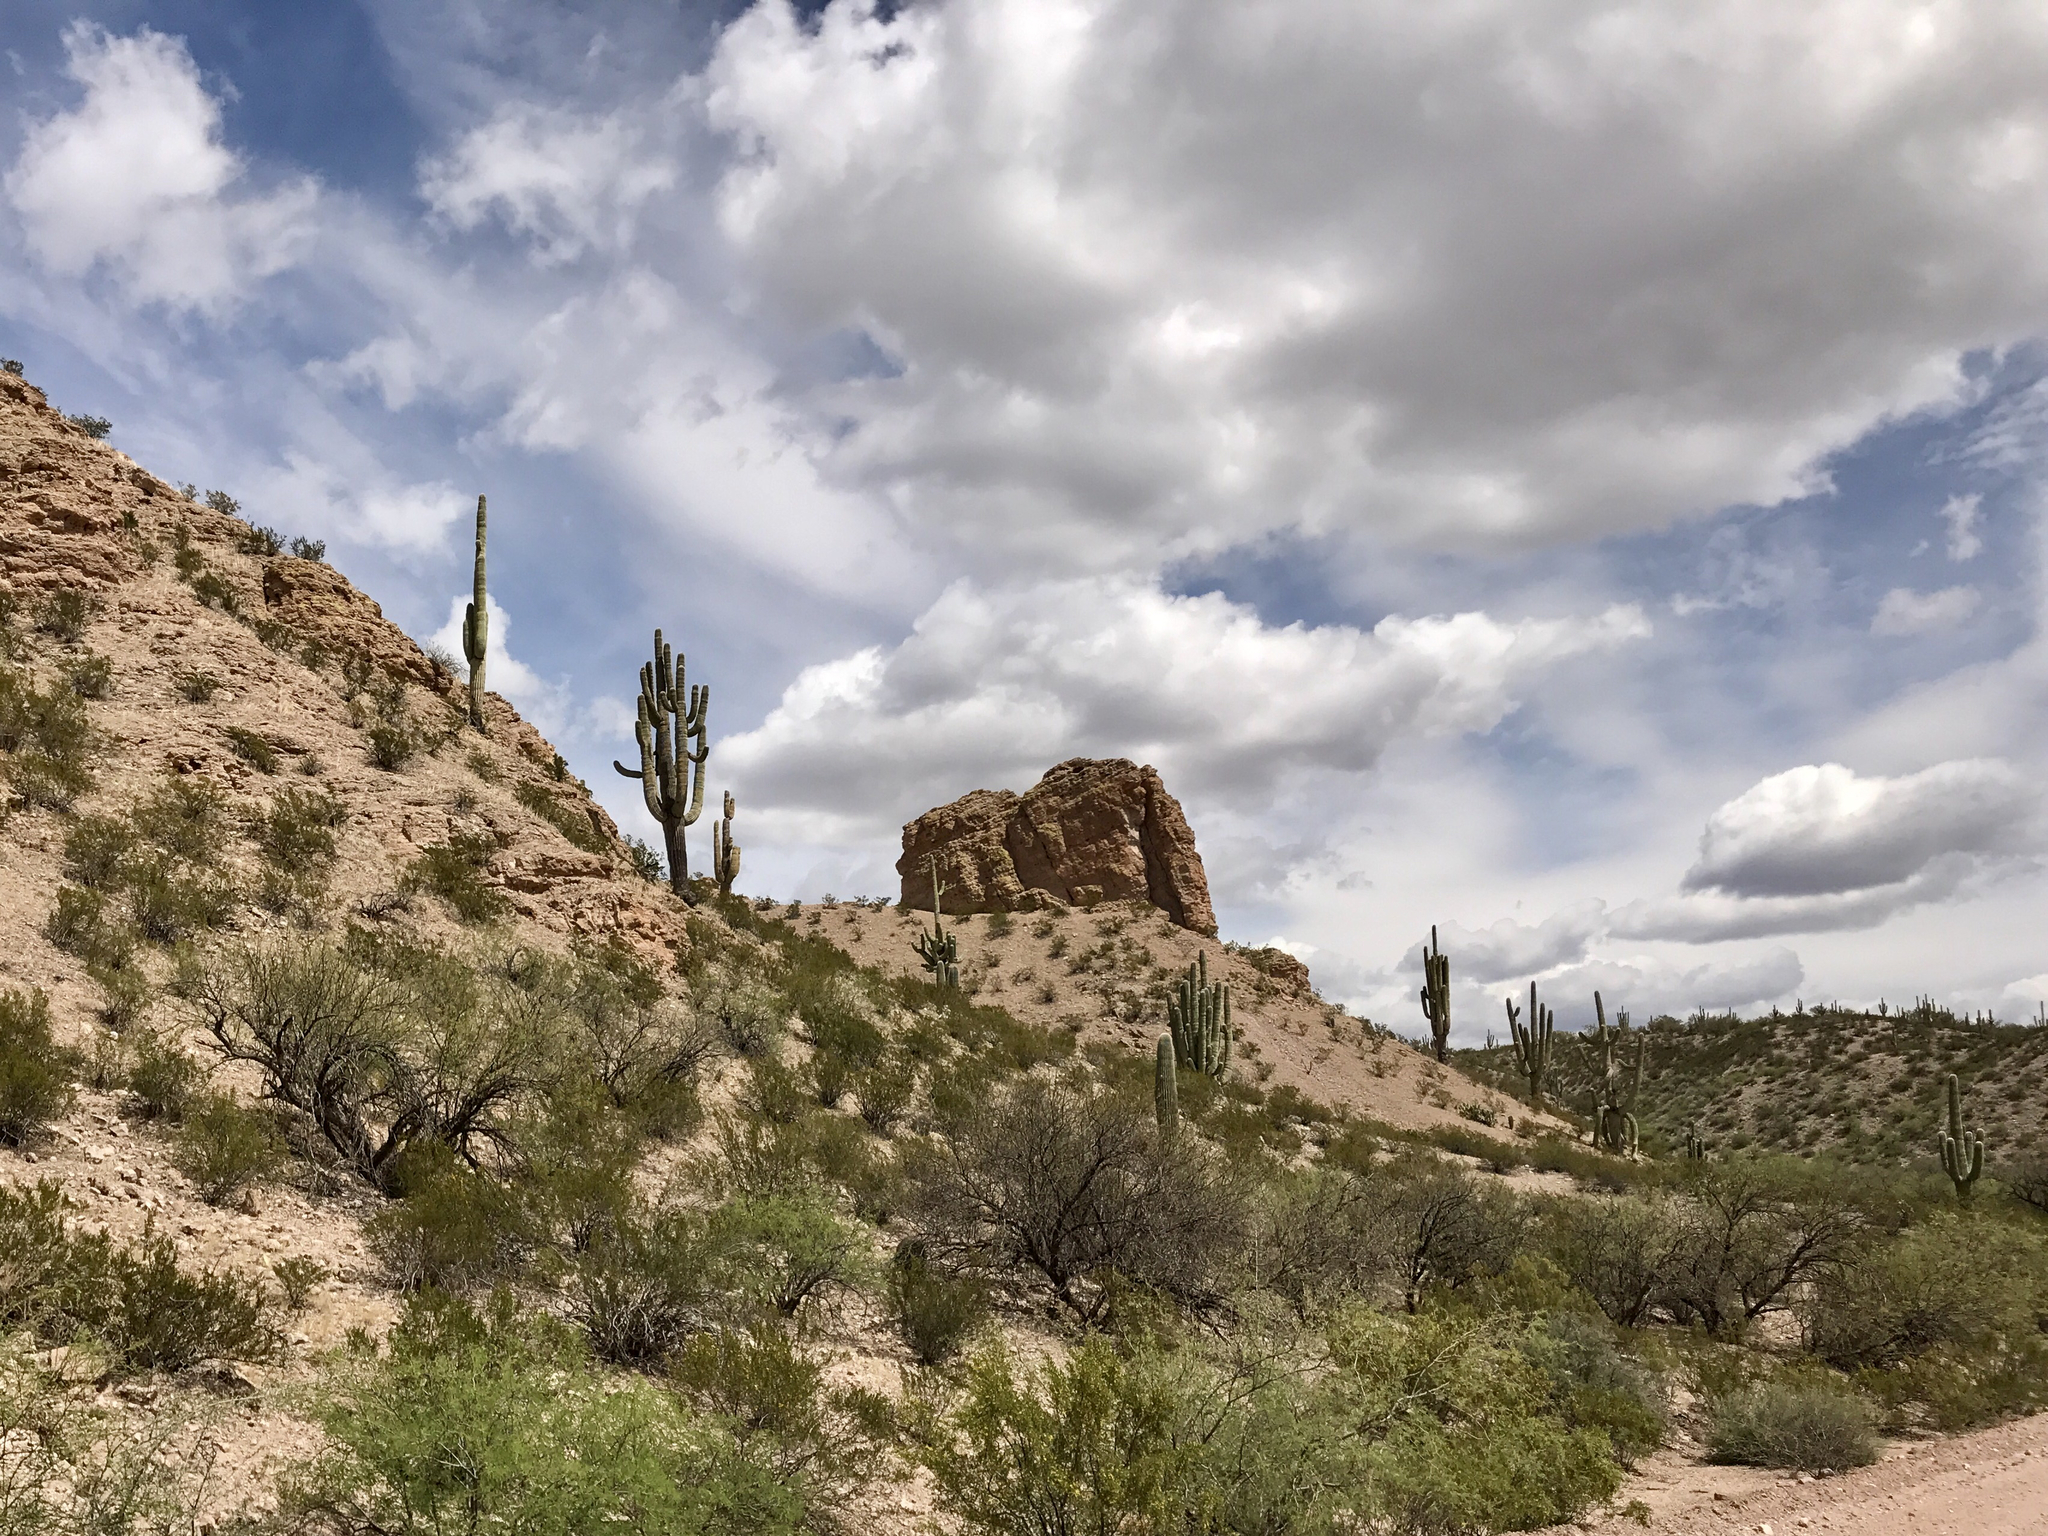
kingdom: Plantae
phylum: Tracheophyta
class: Magnoliopsida
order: Caryophyllales
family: Cactaceae
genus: Carnegiea
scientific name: Carnegiea gigantea
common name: Saguaro
